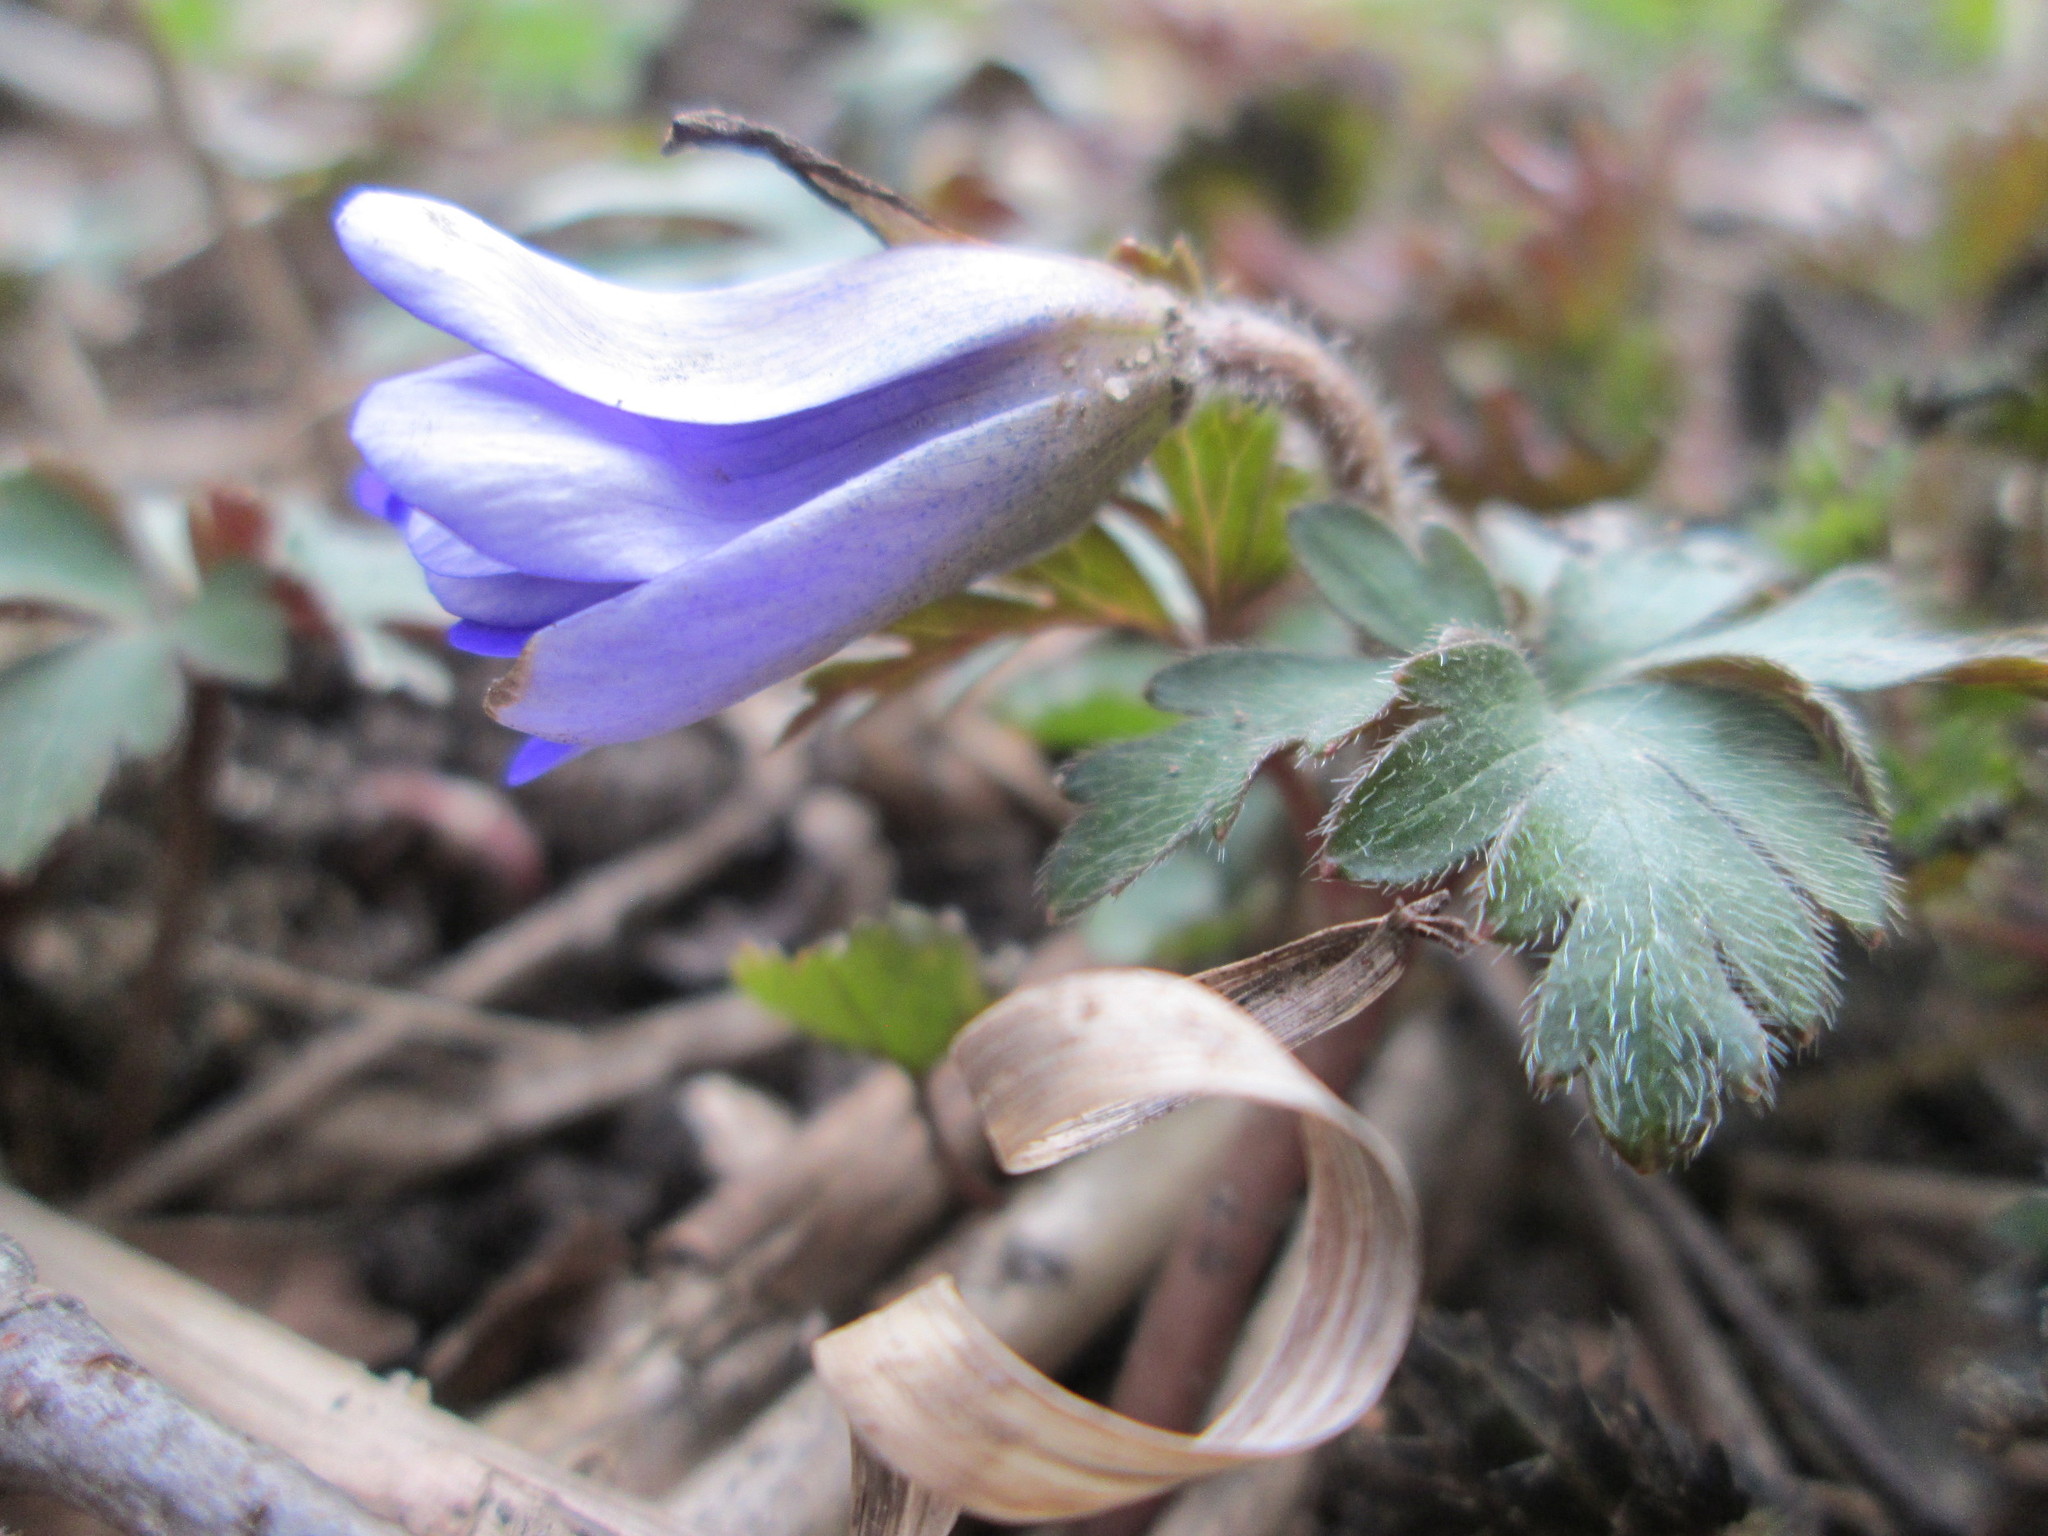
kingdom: Plantae
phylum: Tracheophyta
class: Magnoliopsida
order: Ranunculales
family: Ranunculaceae
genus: Anemone
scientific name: Anemone blanda
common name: Balkan anemone
